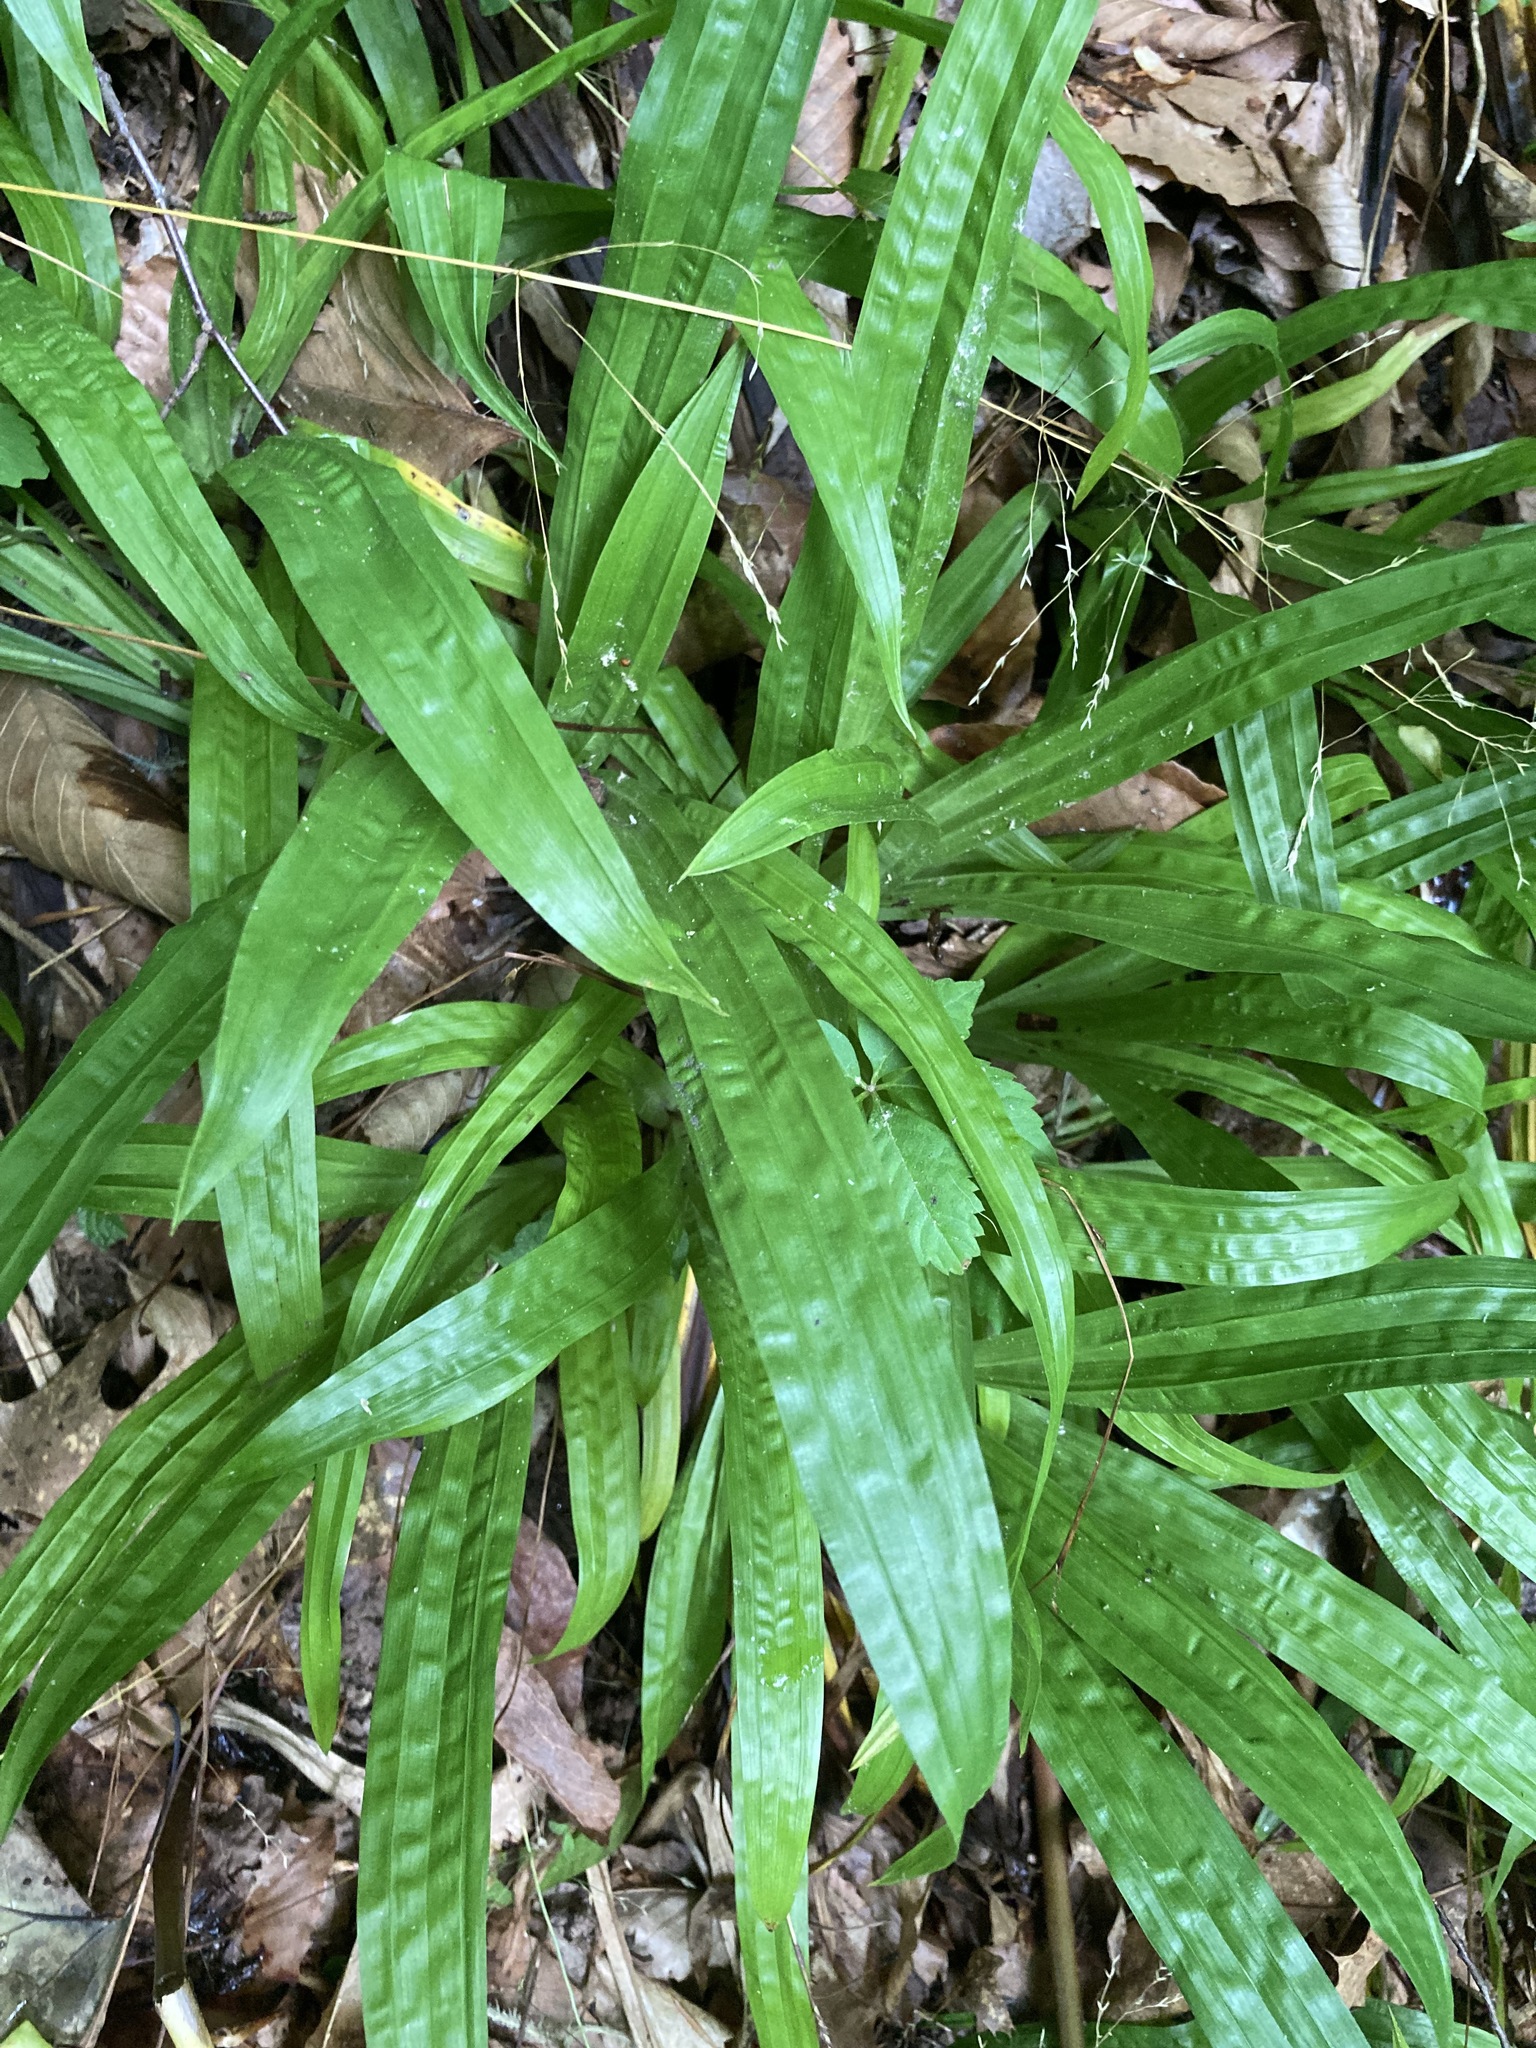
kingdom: Plantae
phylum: Tracheophyta
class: Liliopsida
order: Poales
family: Cyperaceae
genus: Carex
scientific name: Carex plantaginea
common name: Plantain-leaved sedge
